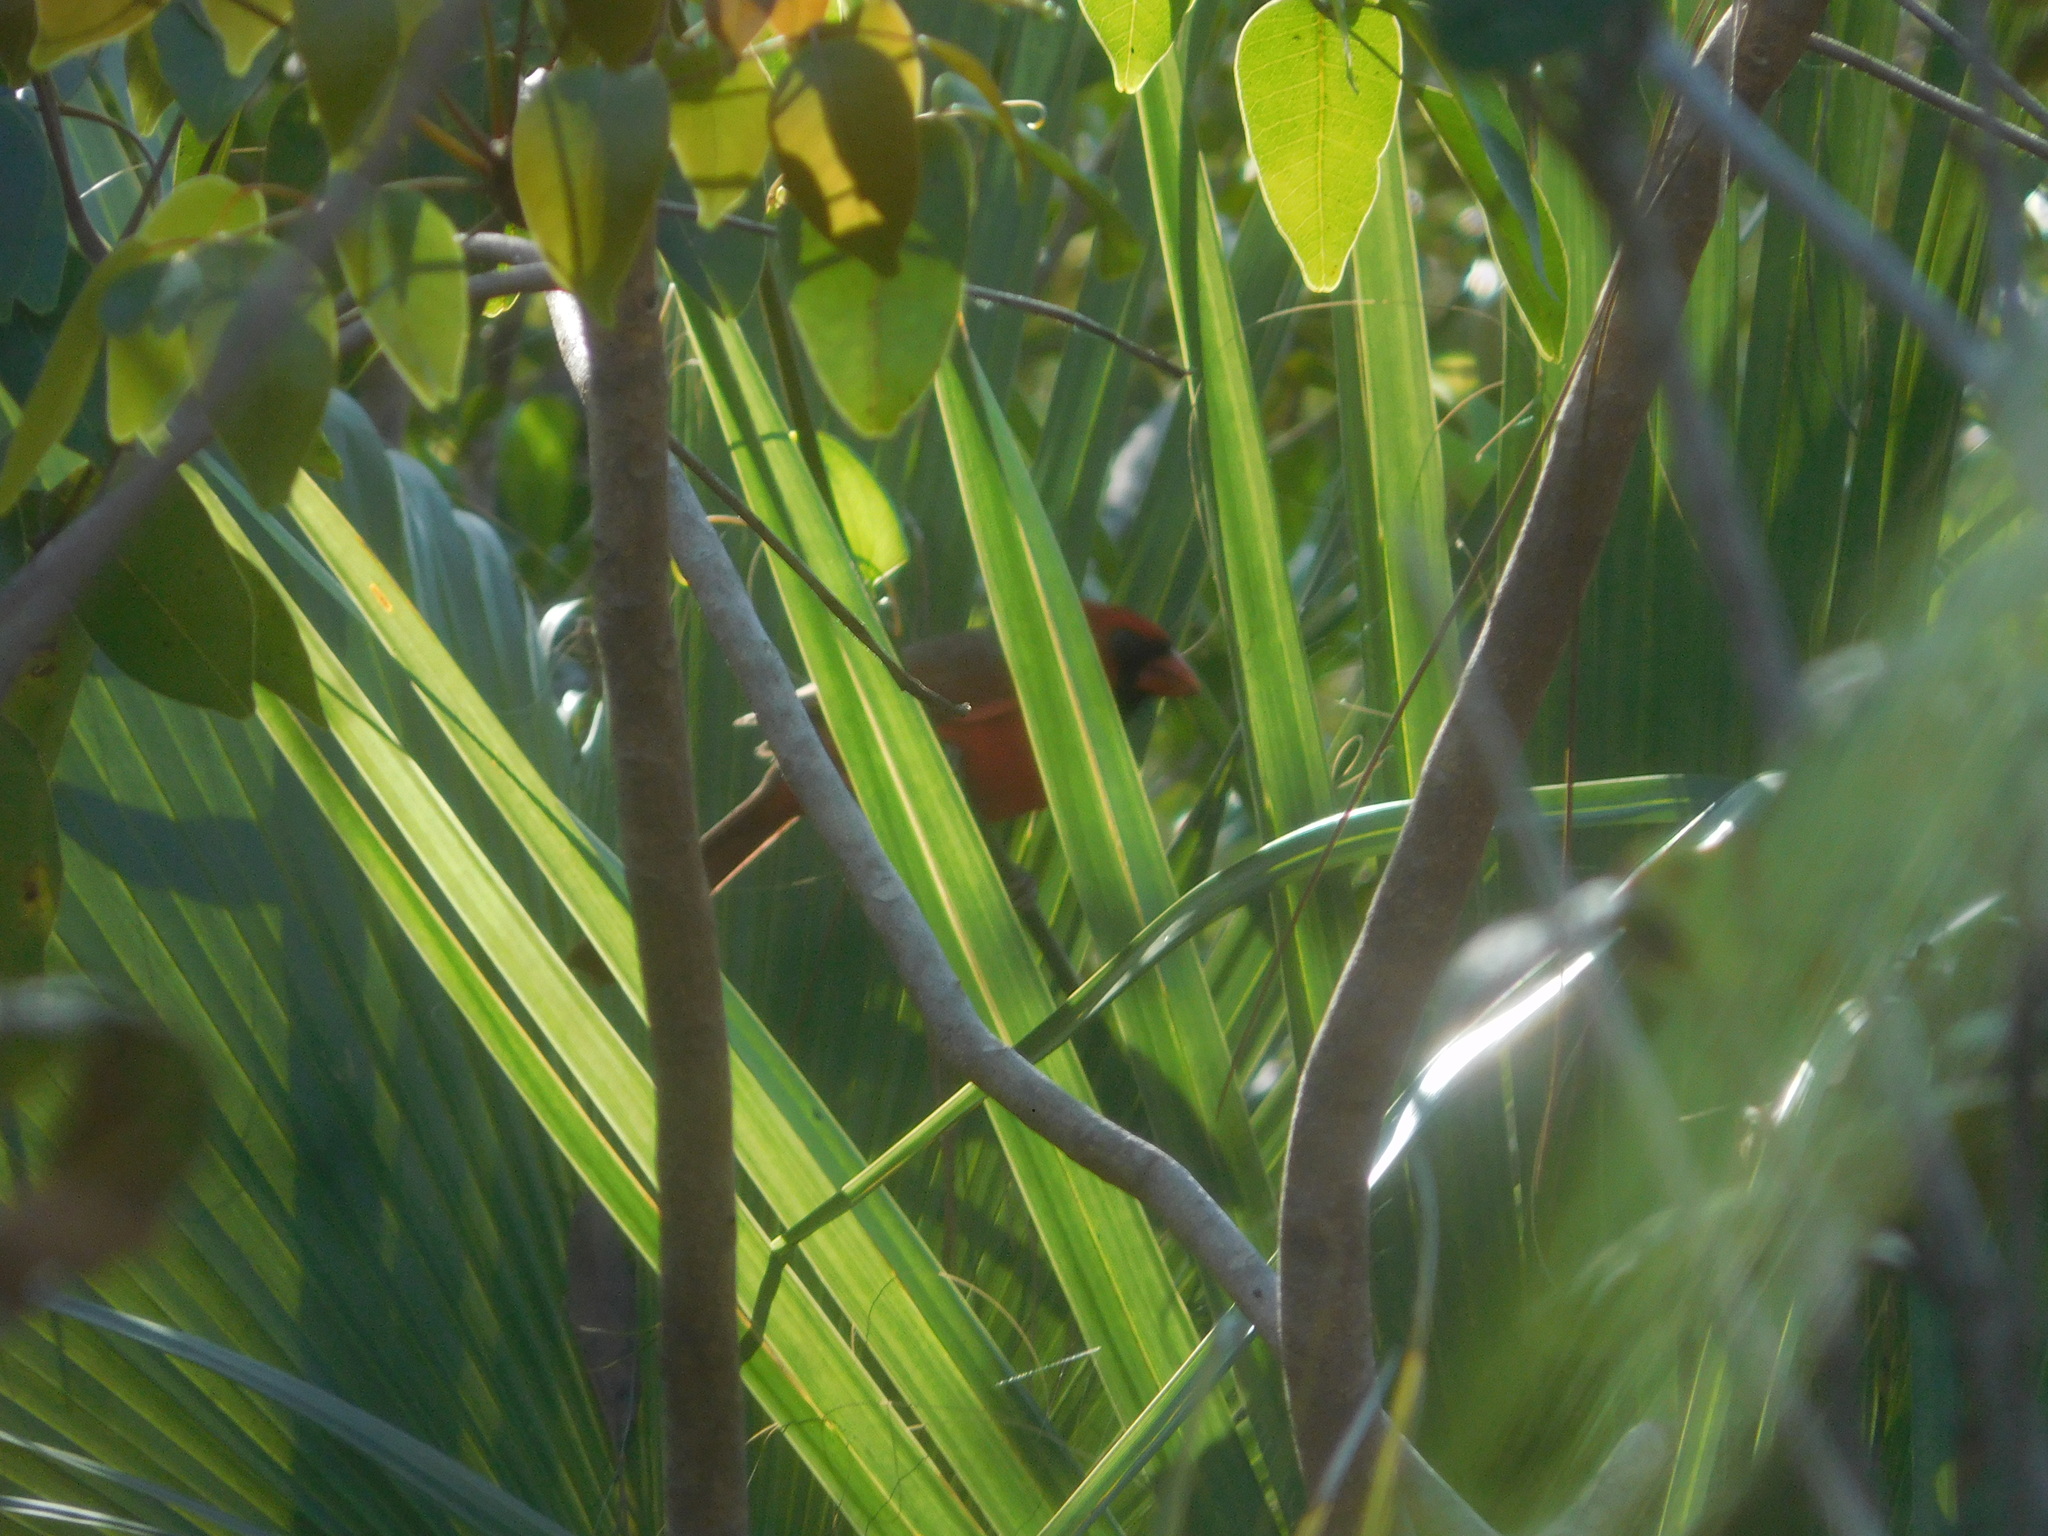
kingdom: Animalia
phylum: Chordata
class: Aves
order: Passeriformes
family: Cardinalidae
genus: Cardinalis
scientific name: Cardinalis cardinalis
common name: Northern cardinal
